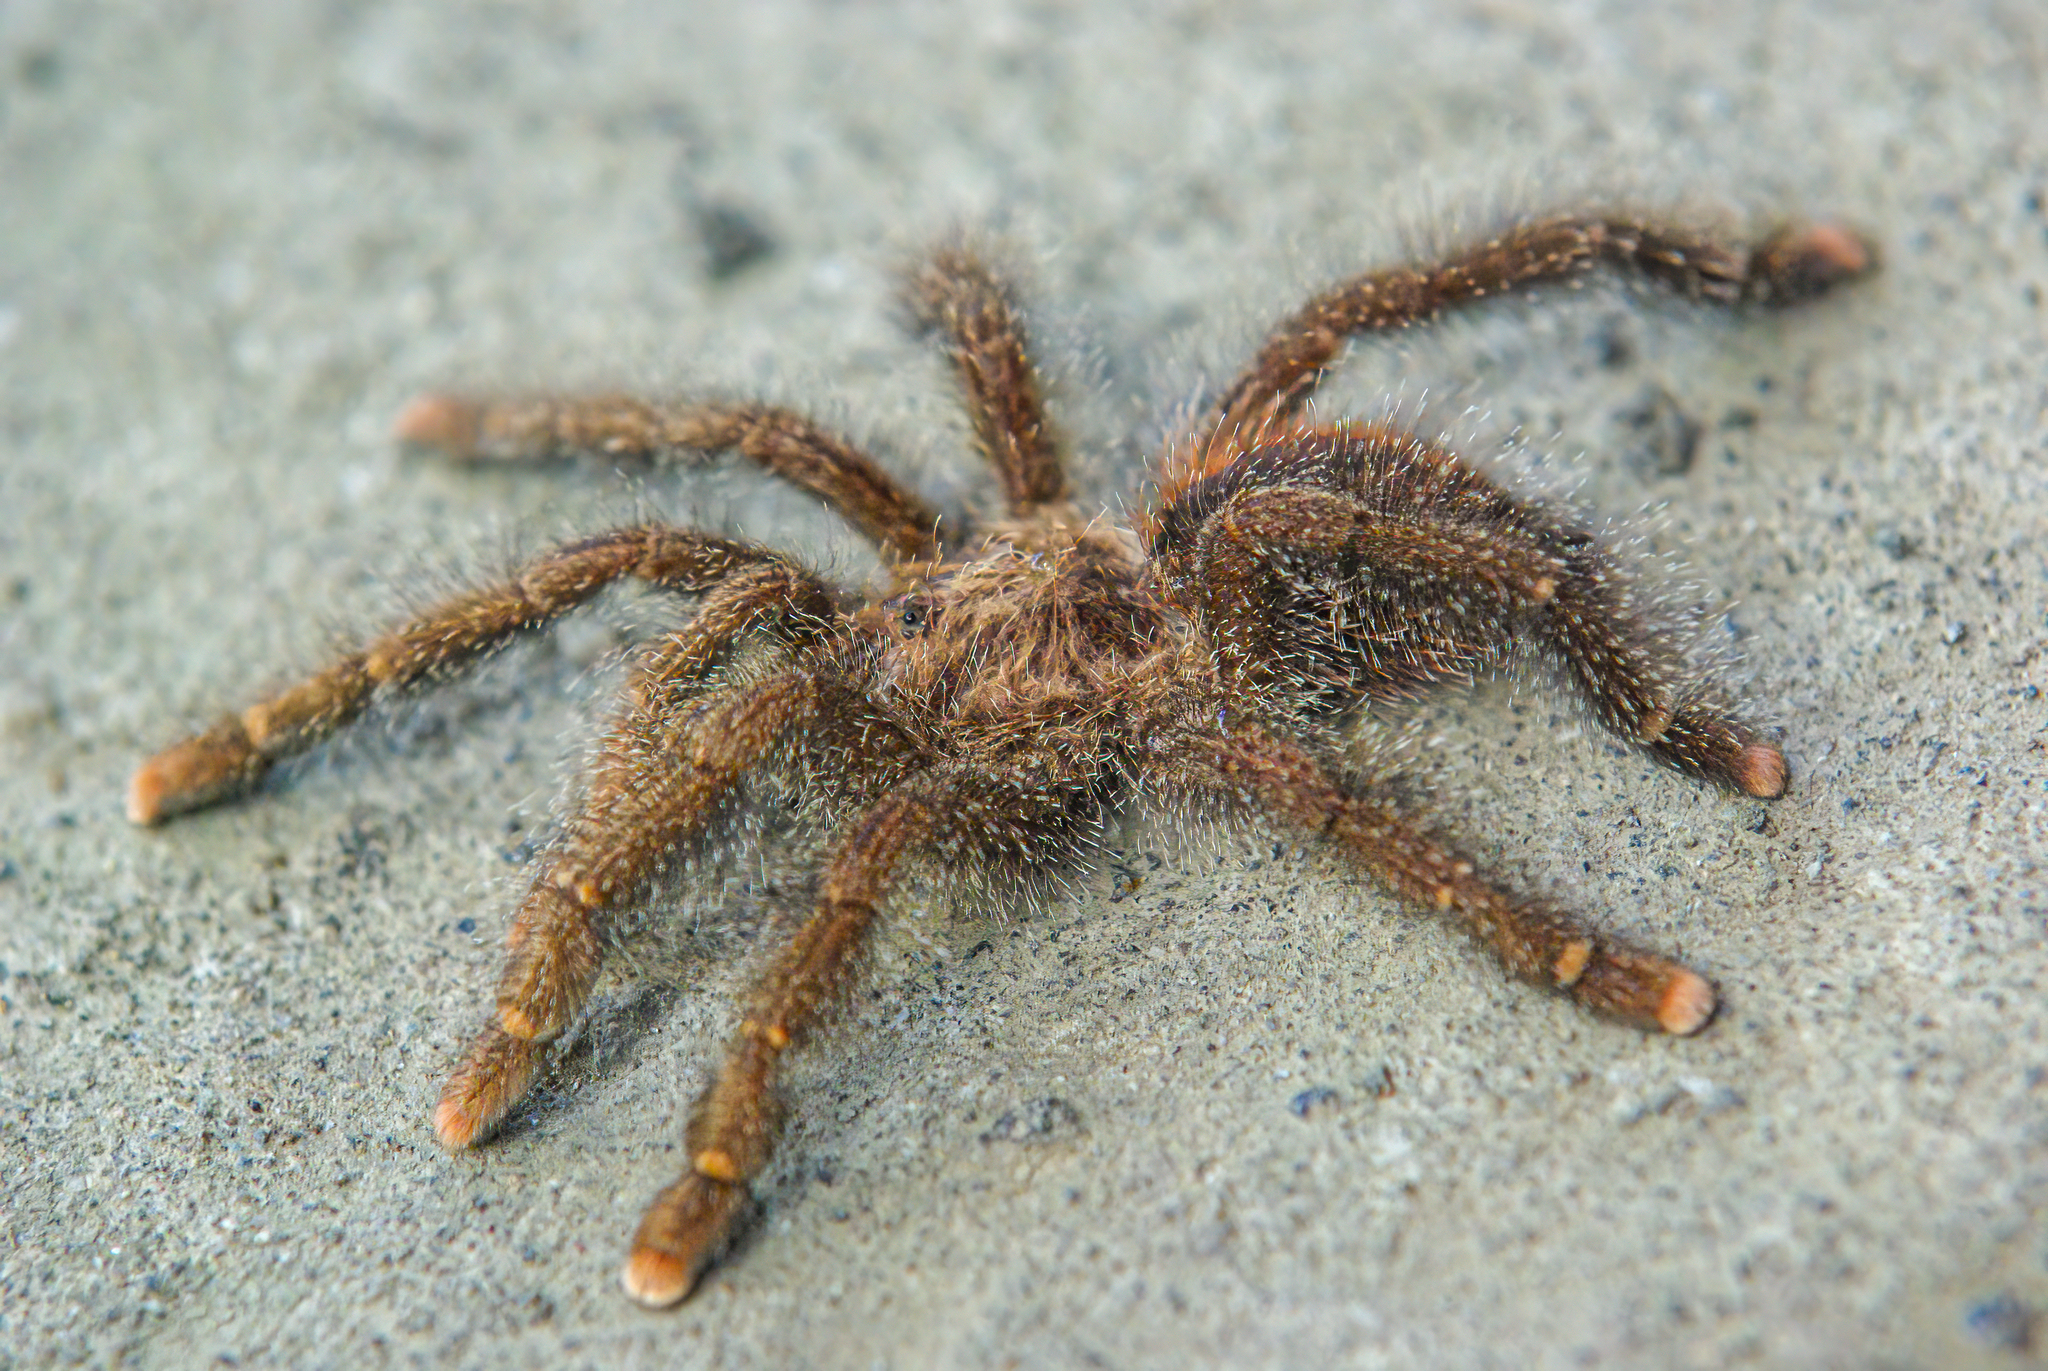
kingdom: Animalia
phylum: Arthropoda
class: Arachnida
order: Araneae
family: Theraphosidae
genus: Avicularia
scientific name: Avicularia juruensis
